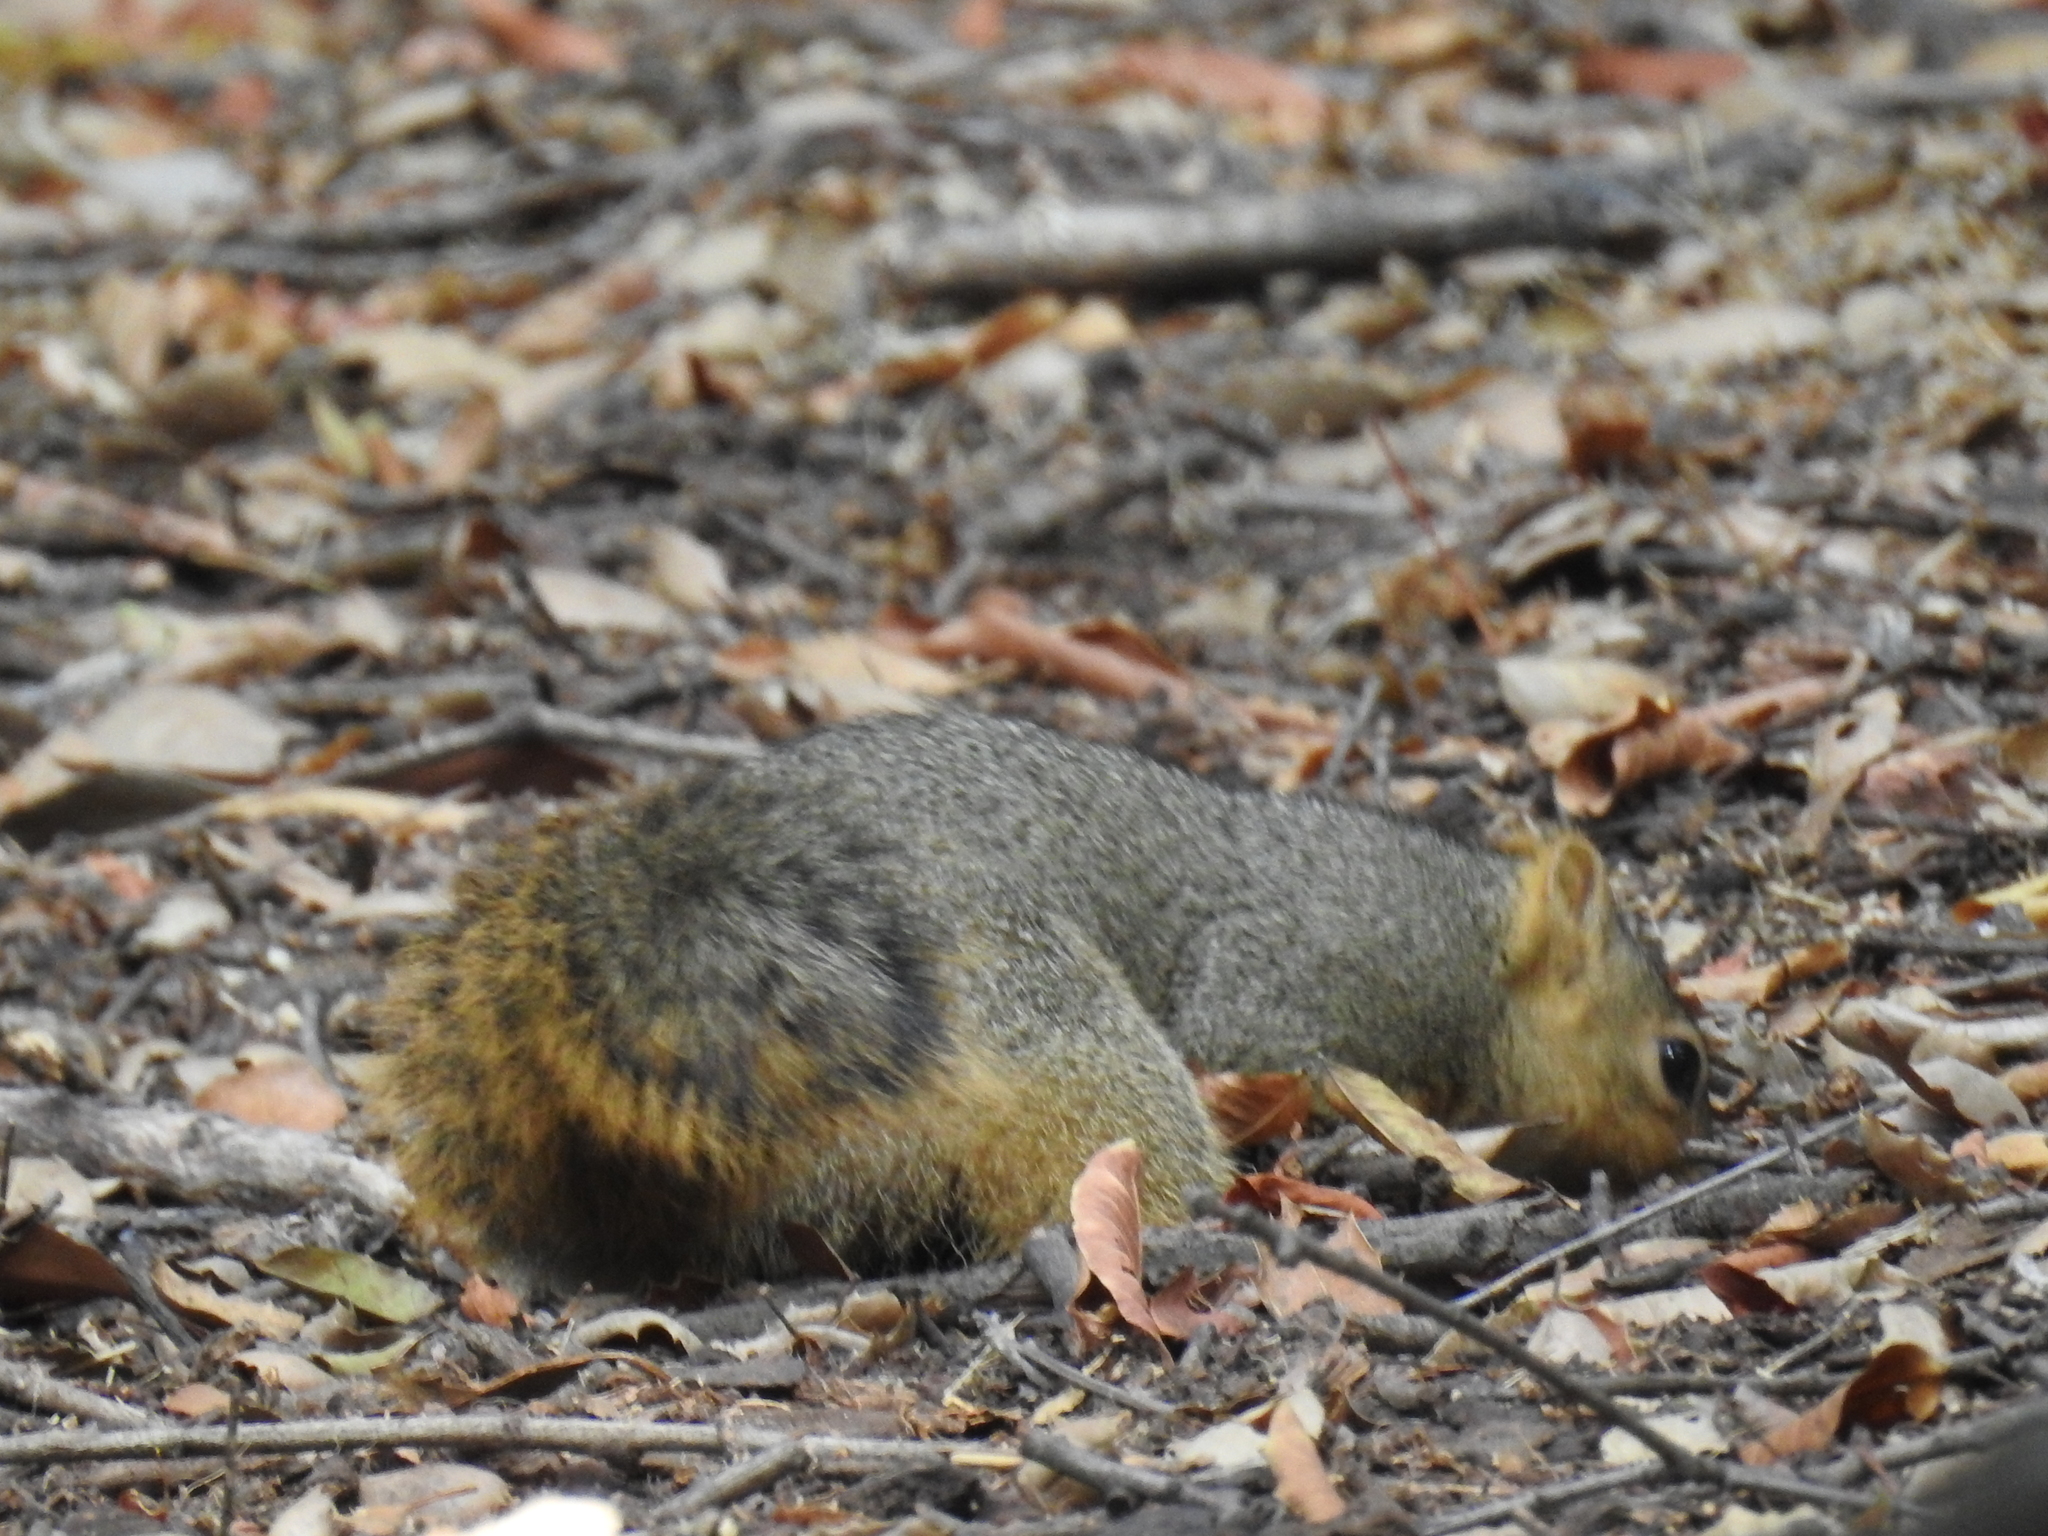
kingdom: Animalia
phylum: Chordata
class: Mammalia
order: Rodentia
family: Sciuridae
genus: Sciurus
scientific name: Sciurus niger
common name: Fox squirrel
